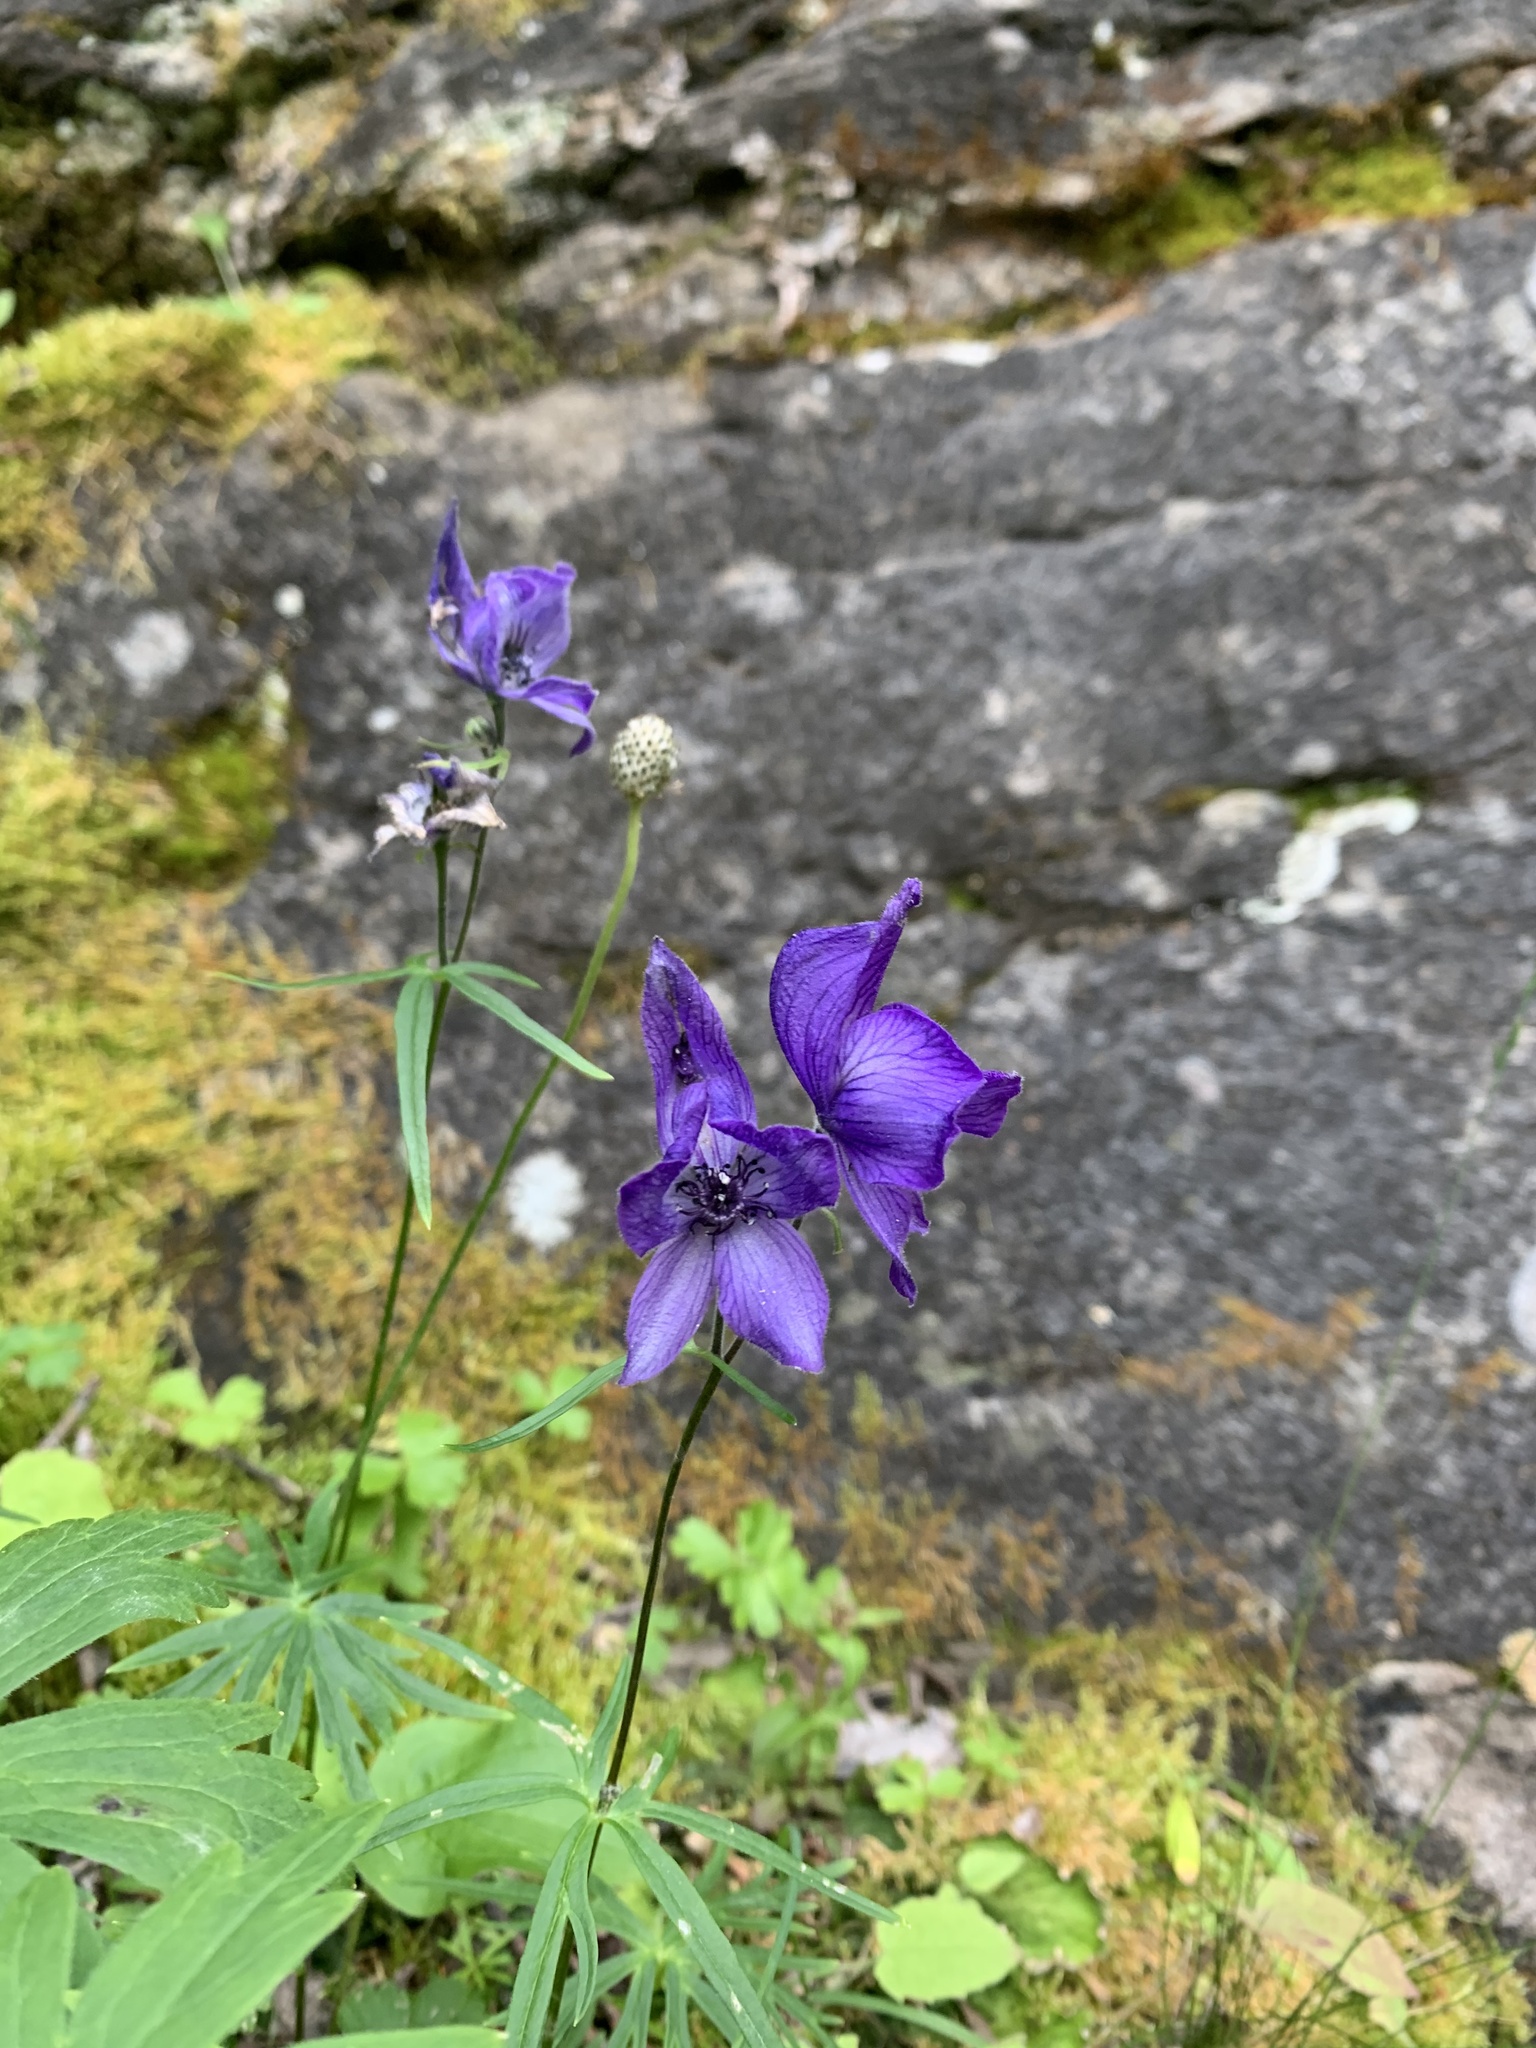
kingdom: Plantae
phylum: Tracheophyta
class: Magnoliopsida
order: Ranunculales
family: Ranunculaceae
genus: Aconitum
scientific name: Aconitum delphiniifolium
